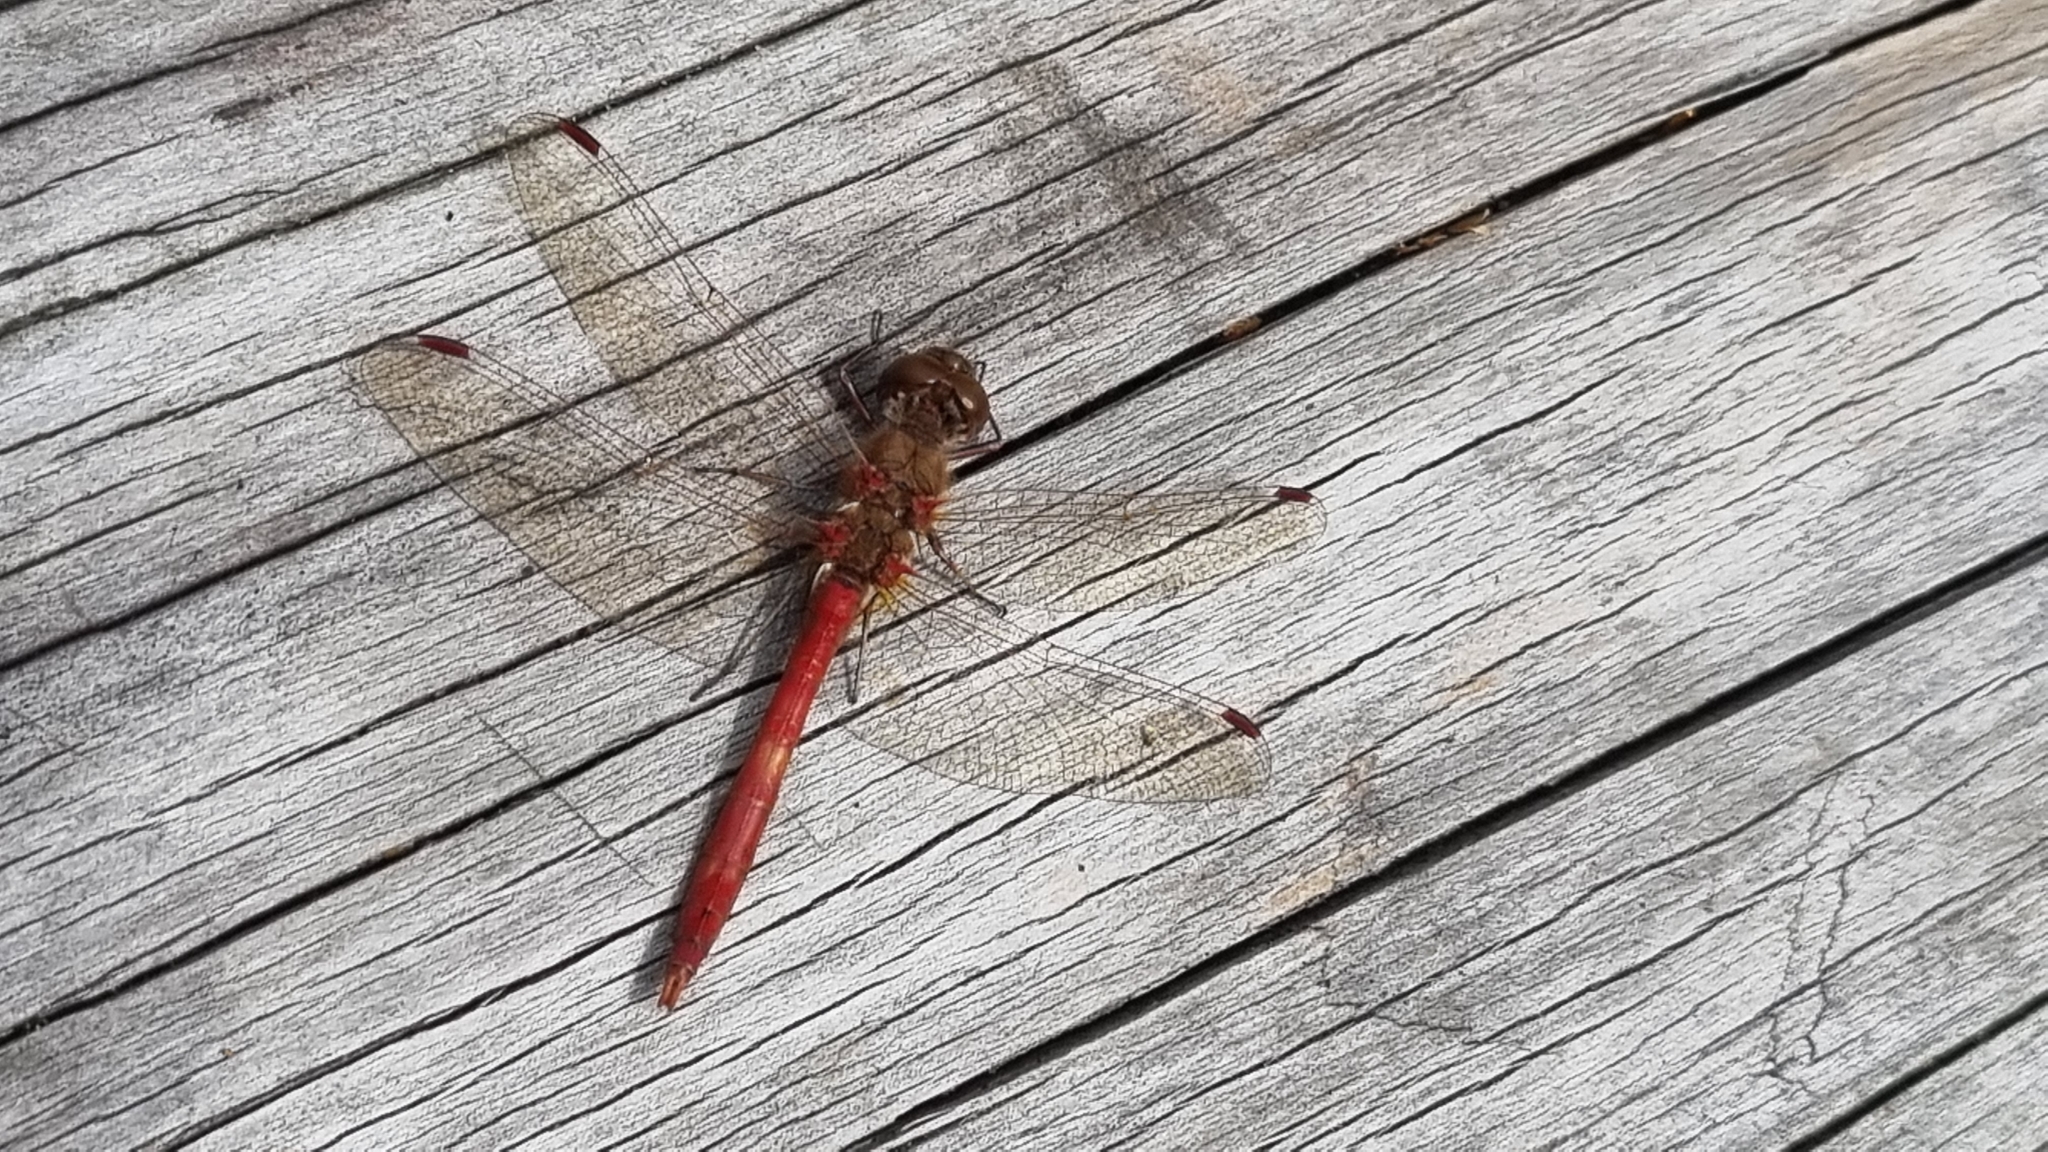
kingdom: Animalia
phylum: Arthropoda
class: Insecta
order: Odonata
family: Libellulidae
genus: Sympetrum
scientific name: Sympetrum vulgatum
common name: Vagrant darter
